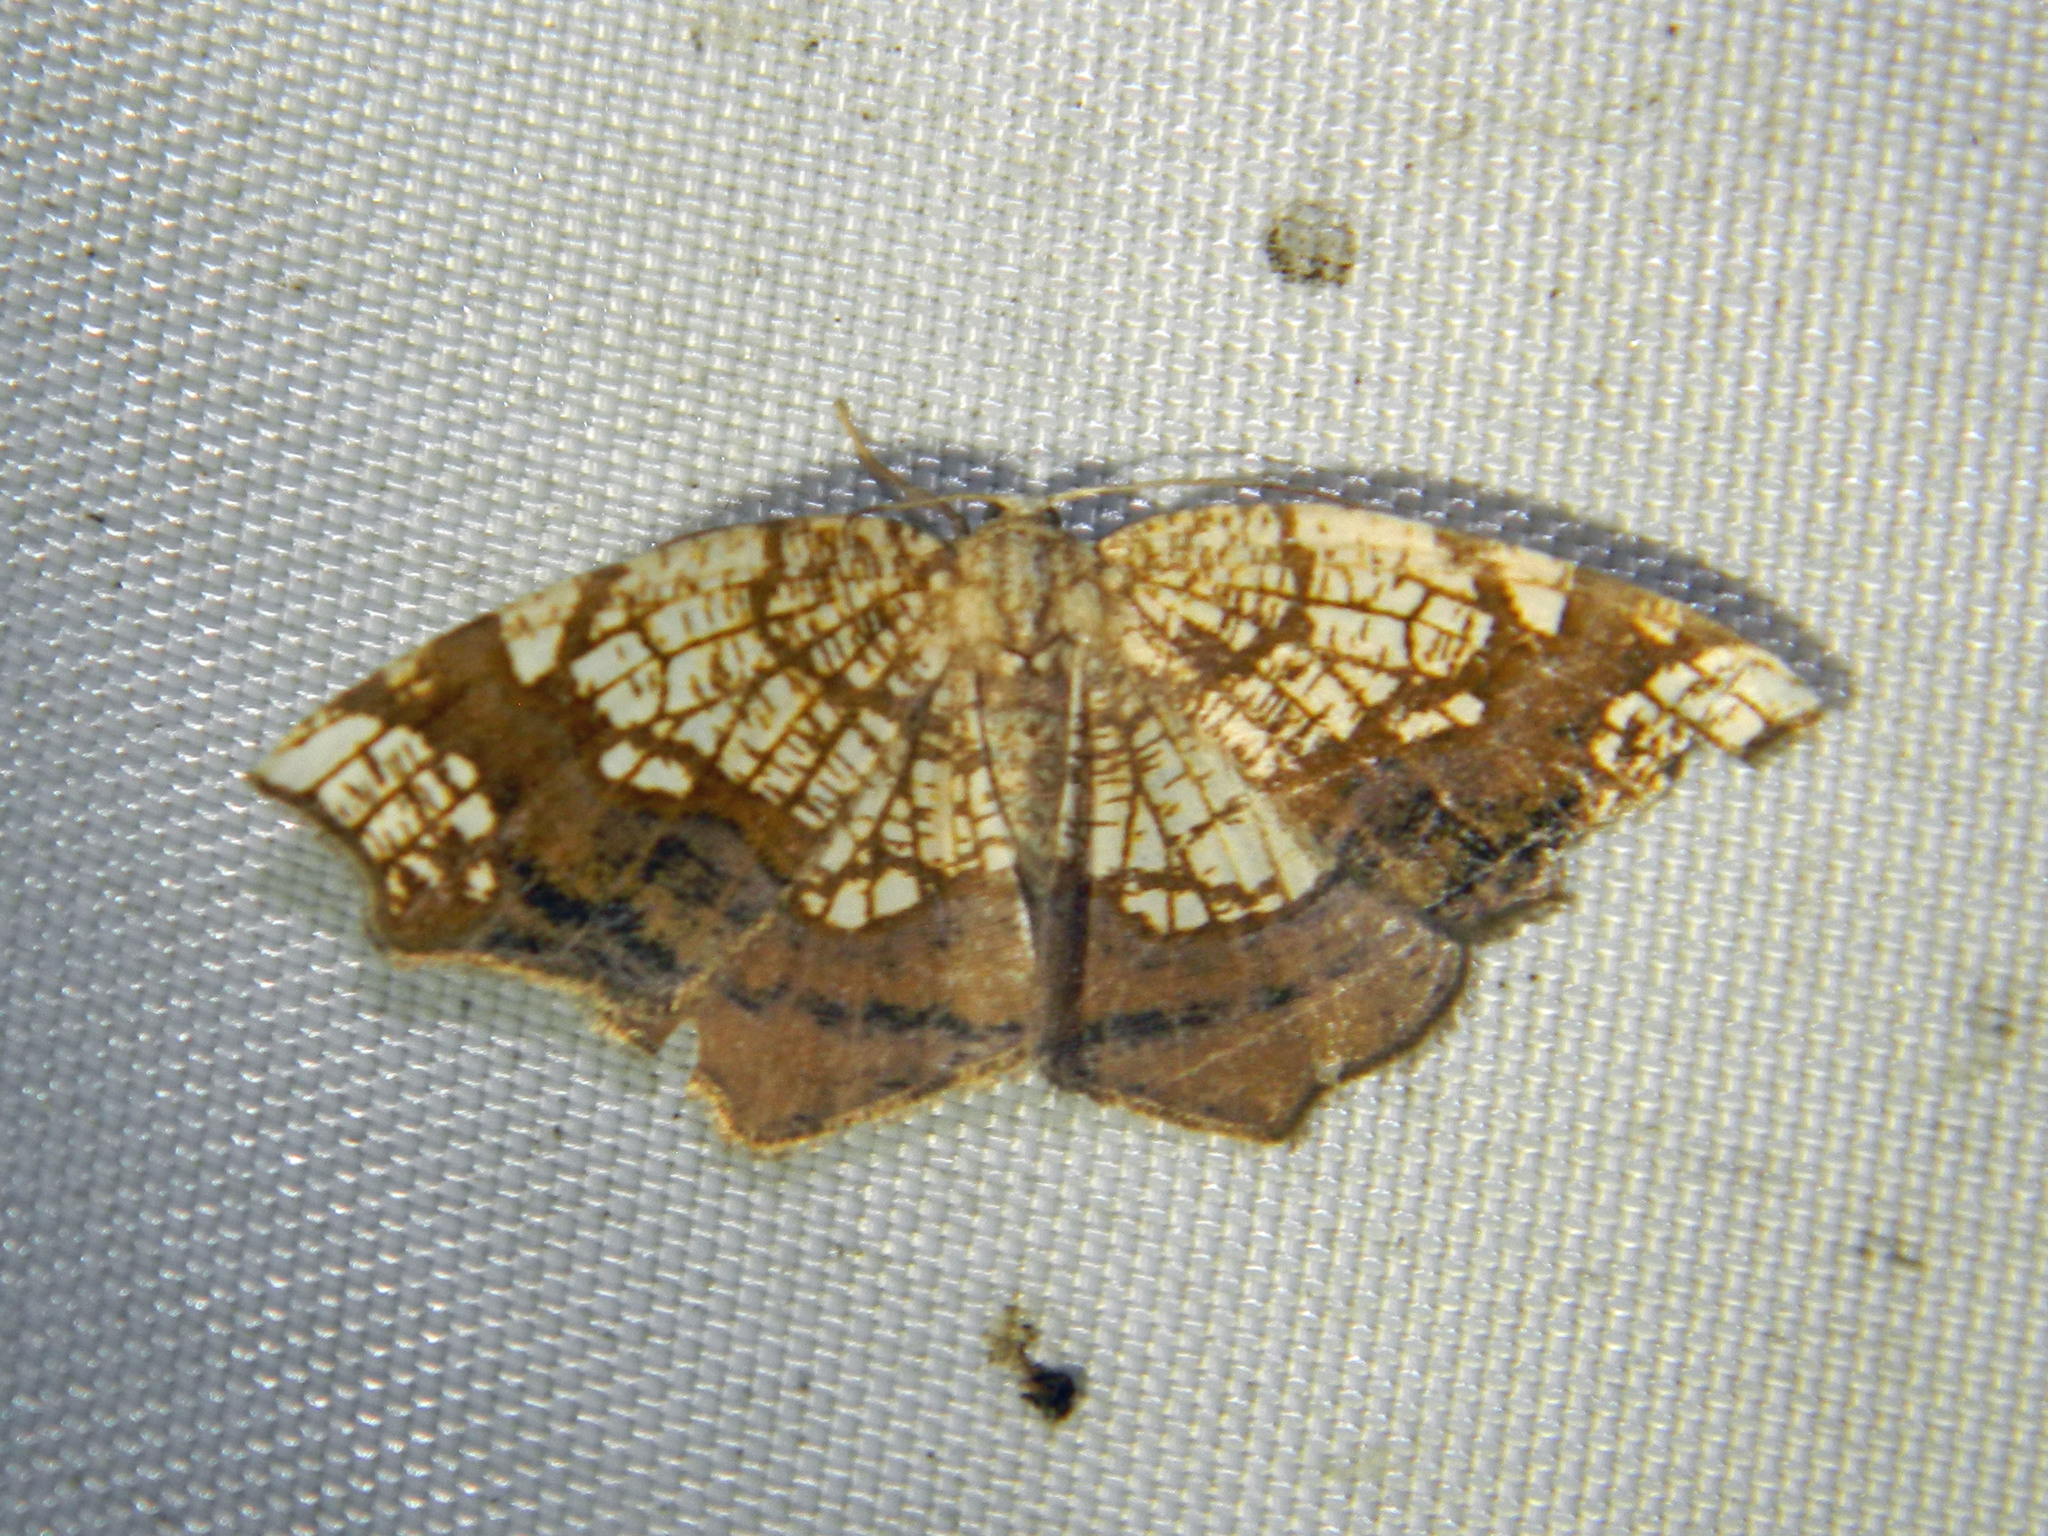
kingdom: Animalia
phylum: Arthropoda
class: Insecta
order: Lepidoptera
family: Geometridae
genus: Nematocampa
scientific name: Nematocampa resistaria
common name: Horned spanworm moth
